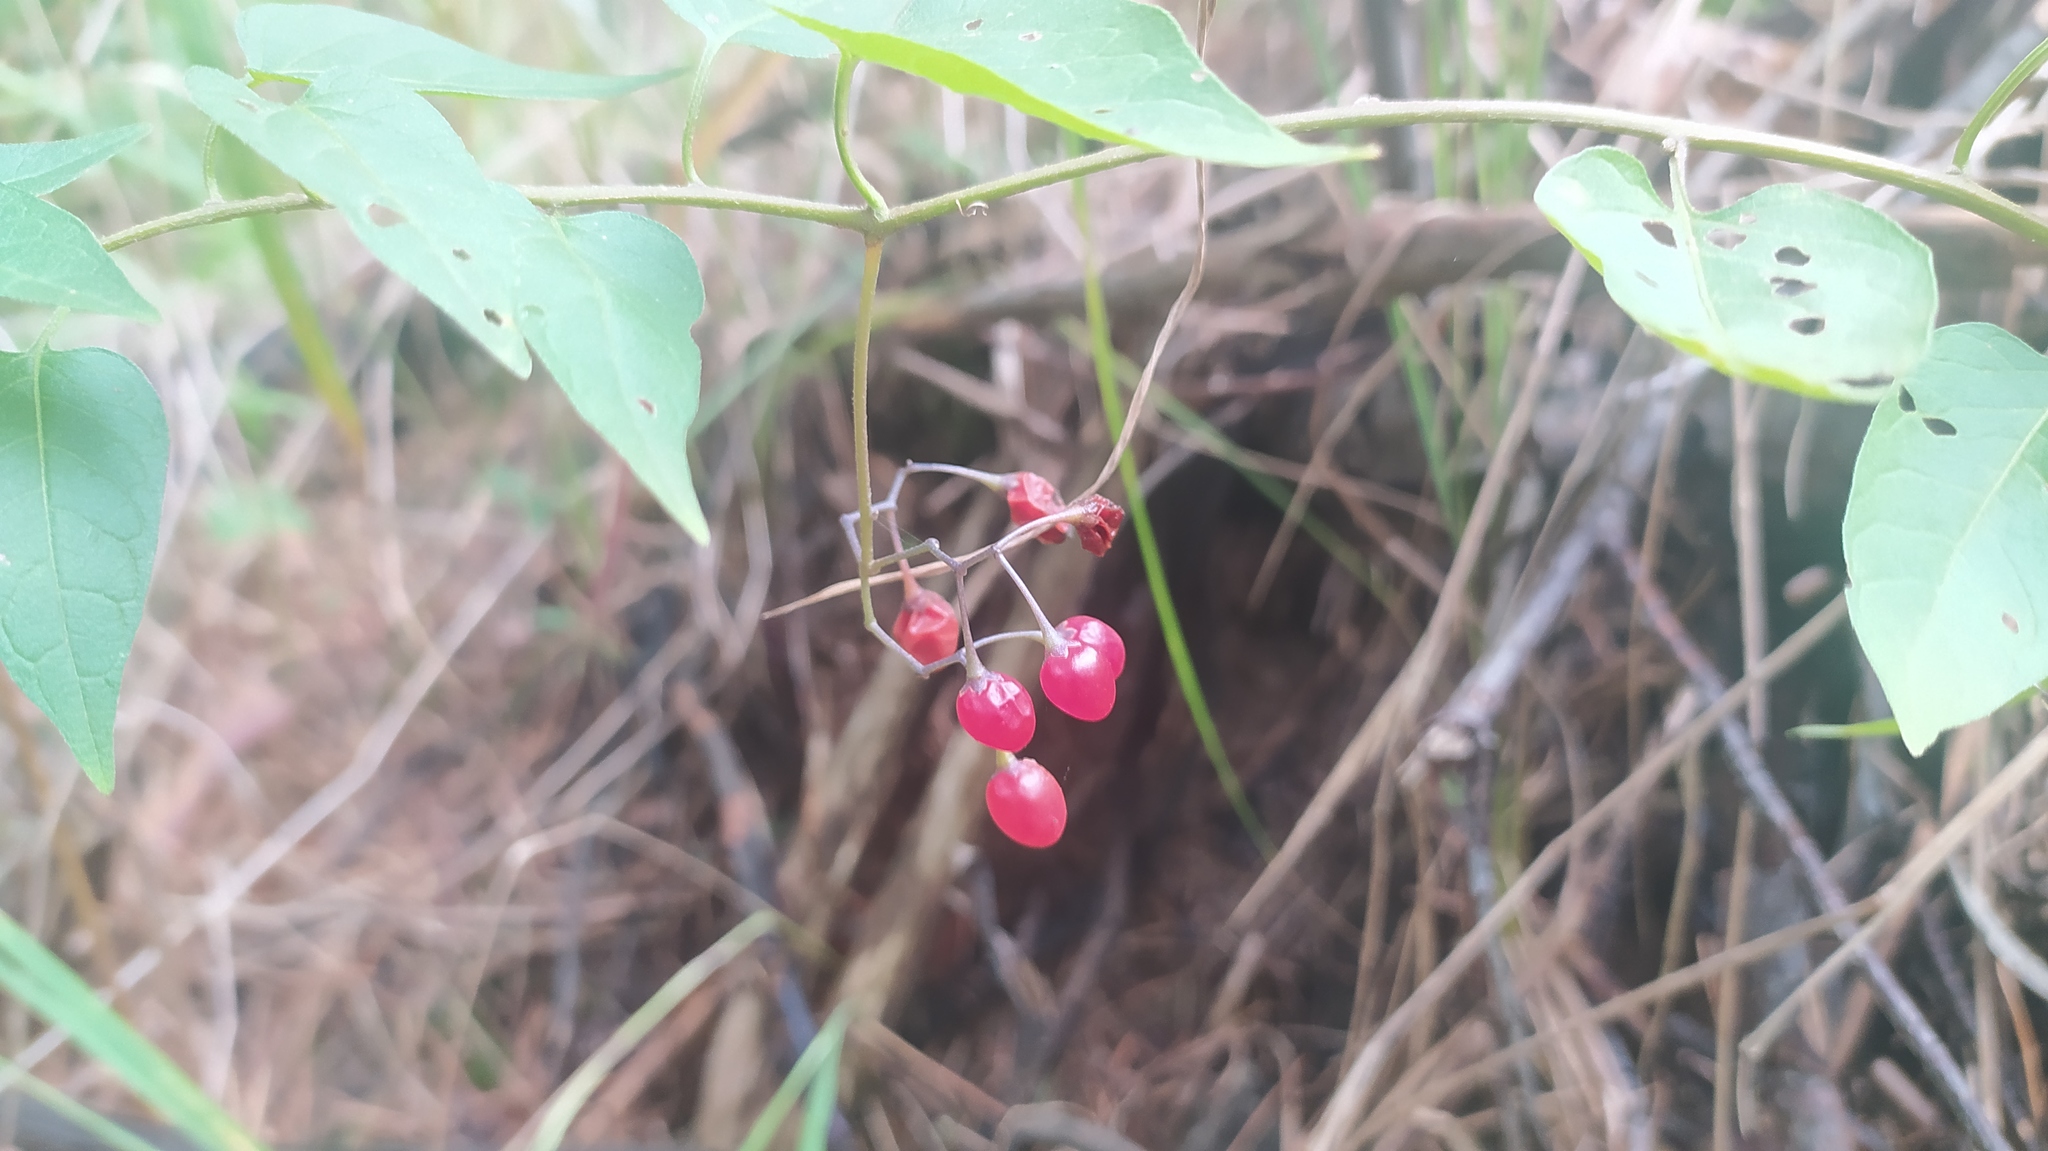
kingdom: Plantae
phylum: Tracheophyta
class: Magnoliopsida
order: Solanales
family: Solanaceae
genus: Solanum
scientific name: Solanum dulcamara
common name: Climbing nightshade
